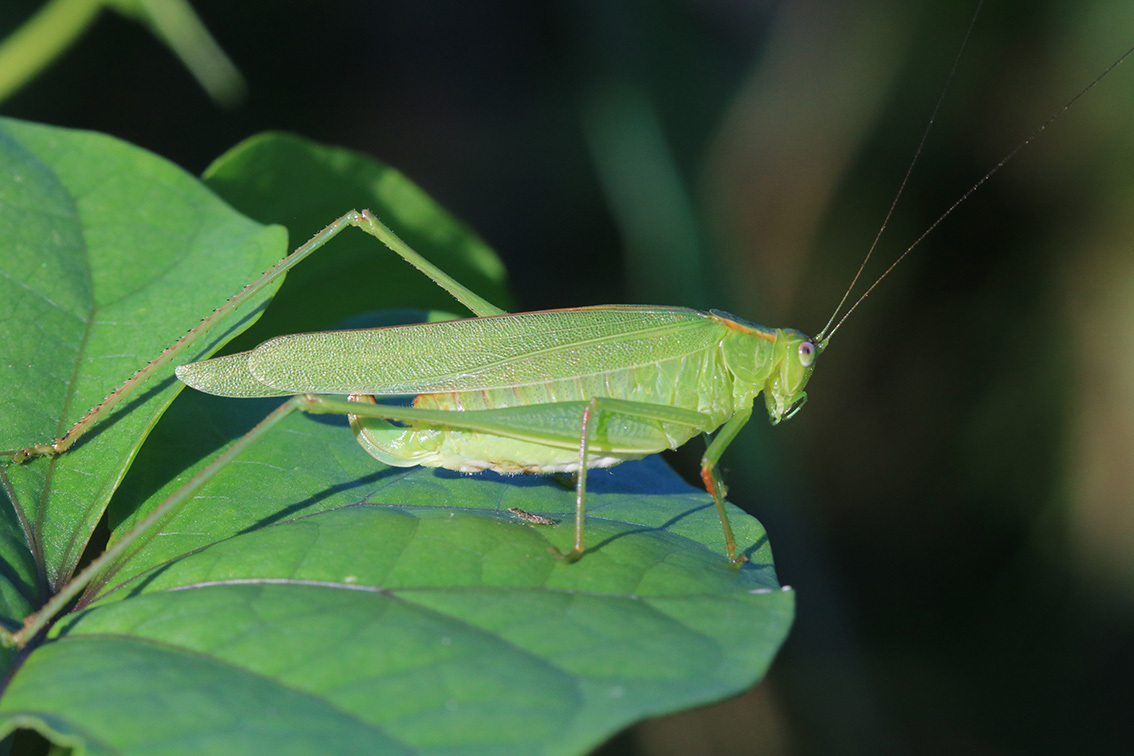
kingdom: Animalia
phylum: Arthropoda
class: Insecta
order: Orthoptera
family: Tettigoniidae
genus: Ligocatinus
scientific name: Ligocatinus spinatus
